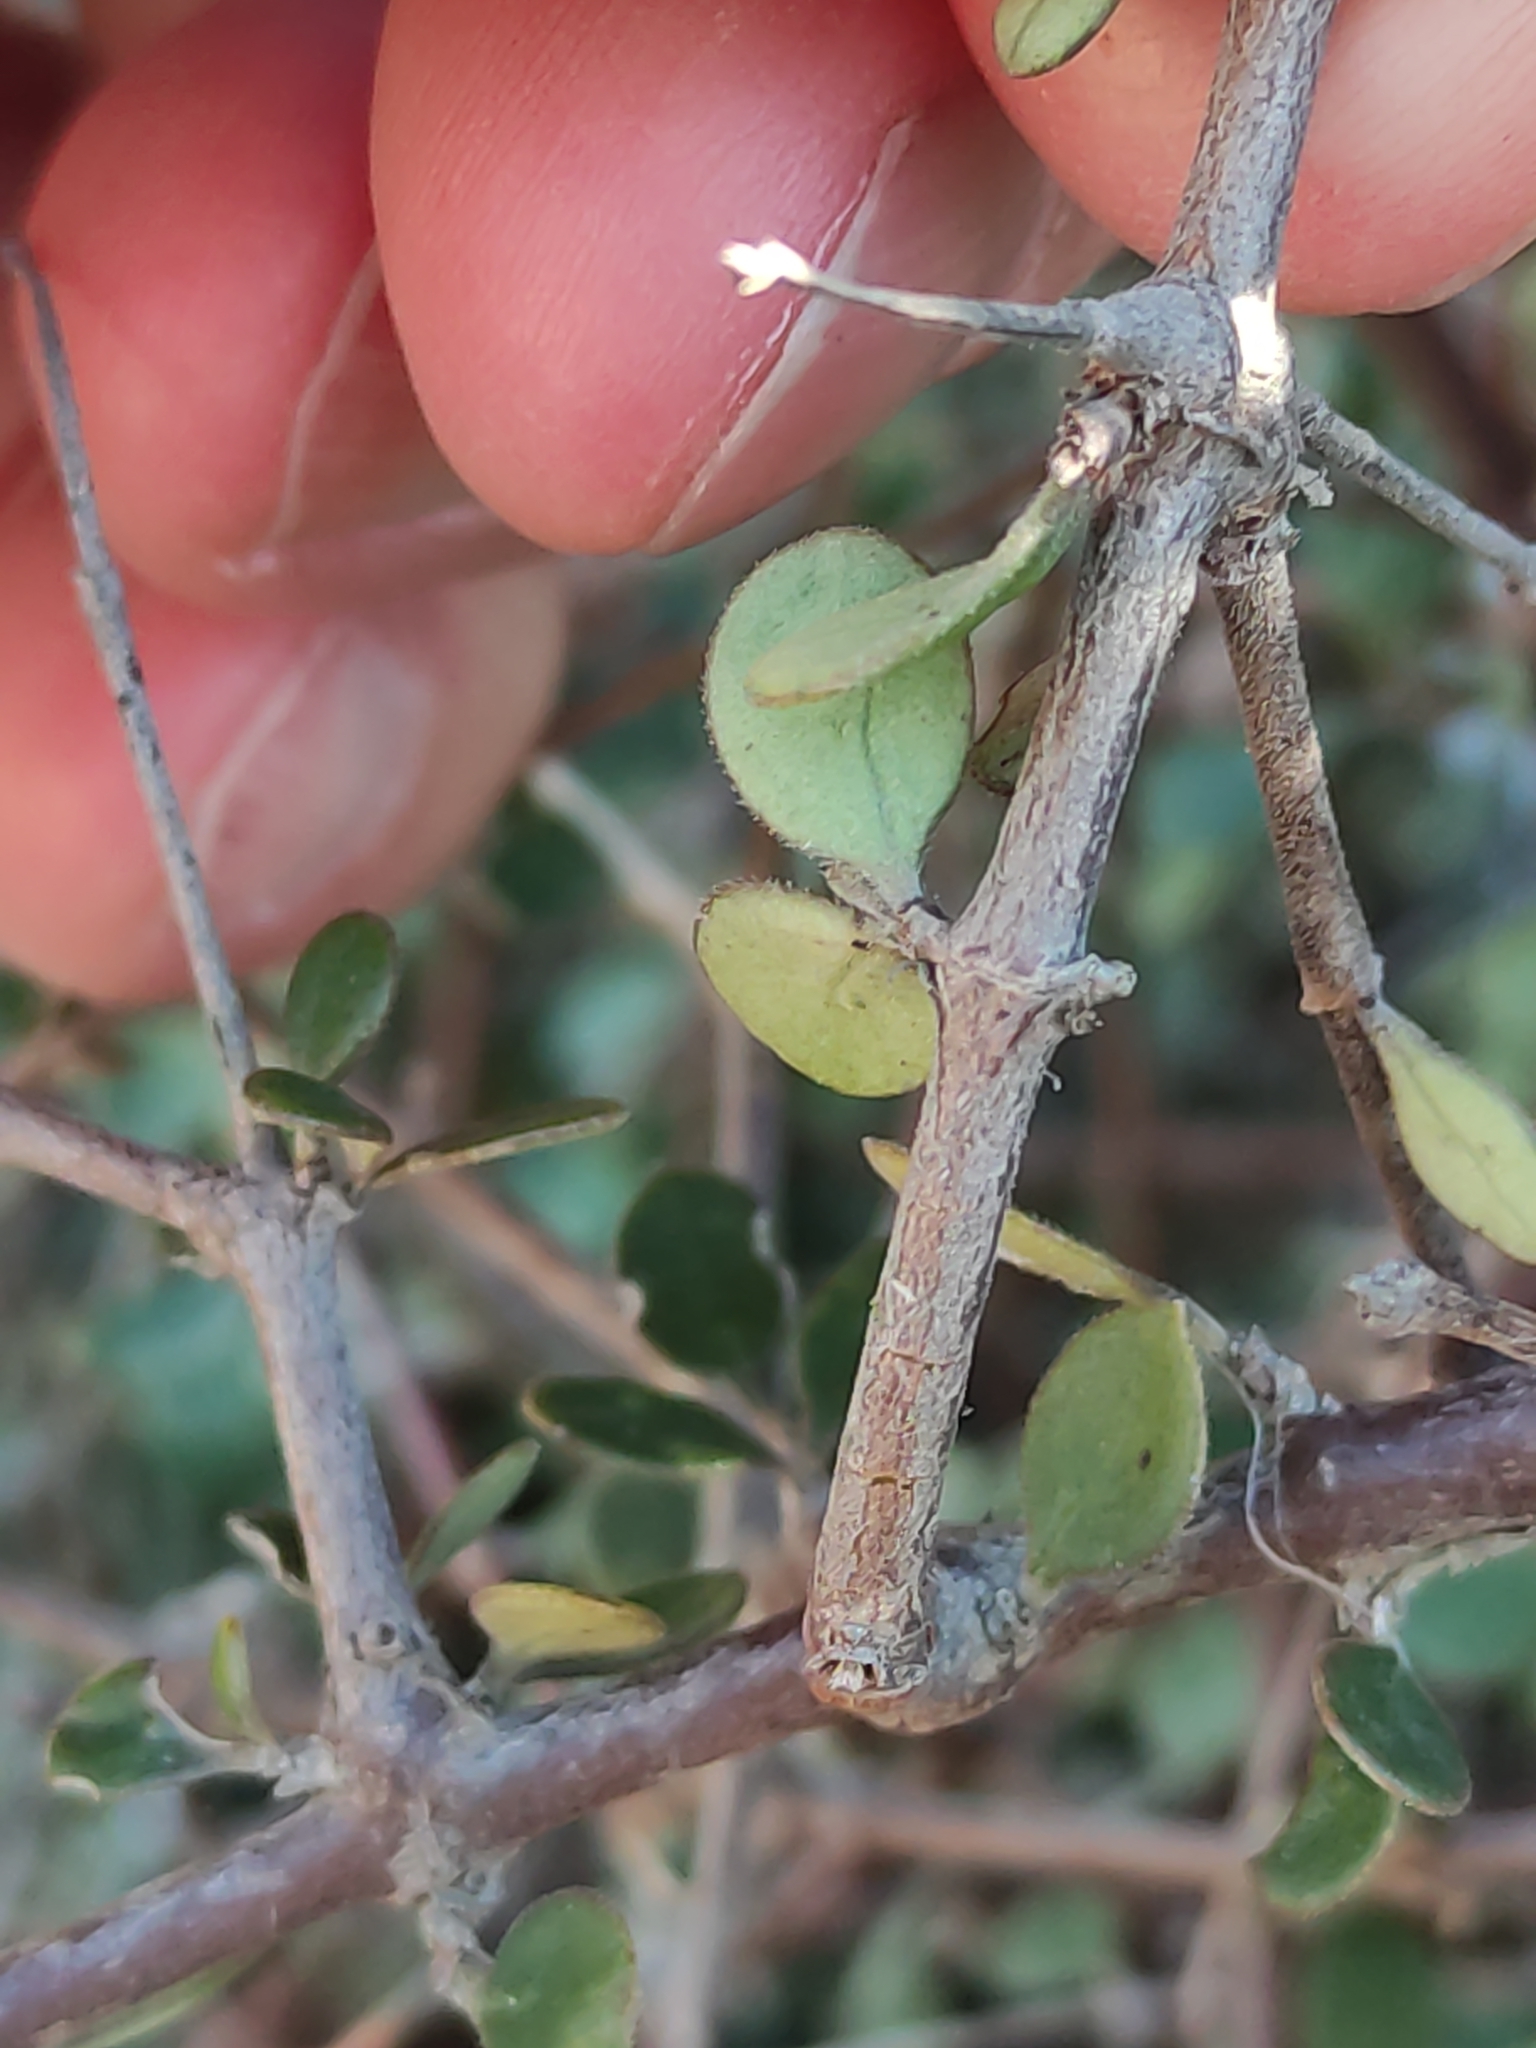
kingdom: Plantae
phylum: Tracheophyta
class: Magnoliopsida
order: Gentianales
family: Rubiaceae
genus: Coprosma
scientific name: Coprosma crassifolia
